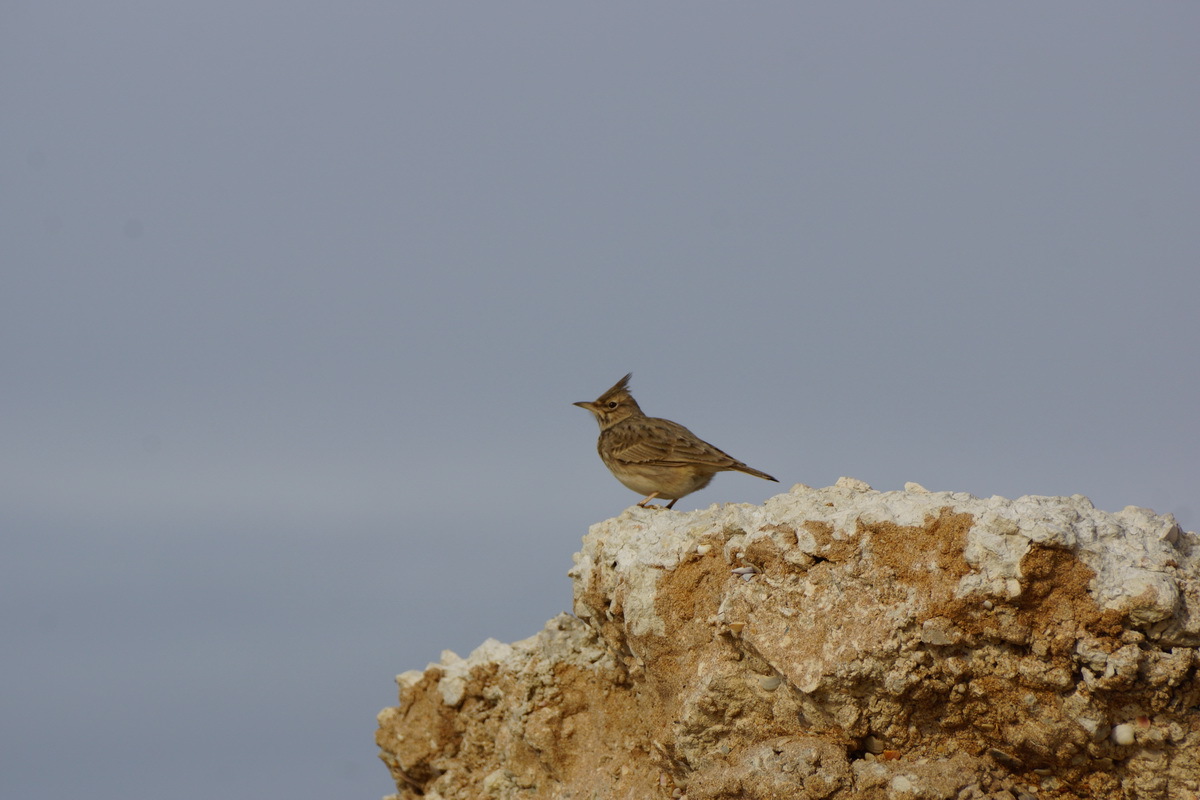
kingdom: Animalia
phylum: Chordata
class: Aves
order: Passeriformes
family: Alaudidae
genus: Galerida
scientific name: Galerida cristata
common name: Crested lark
